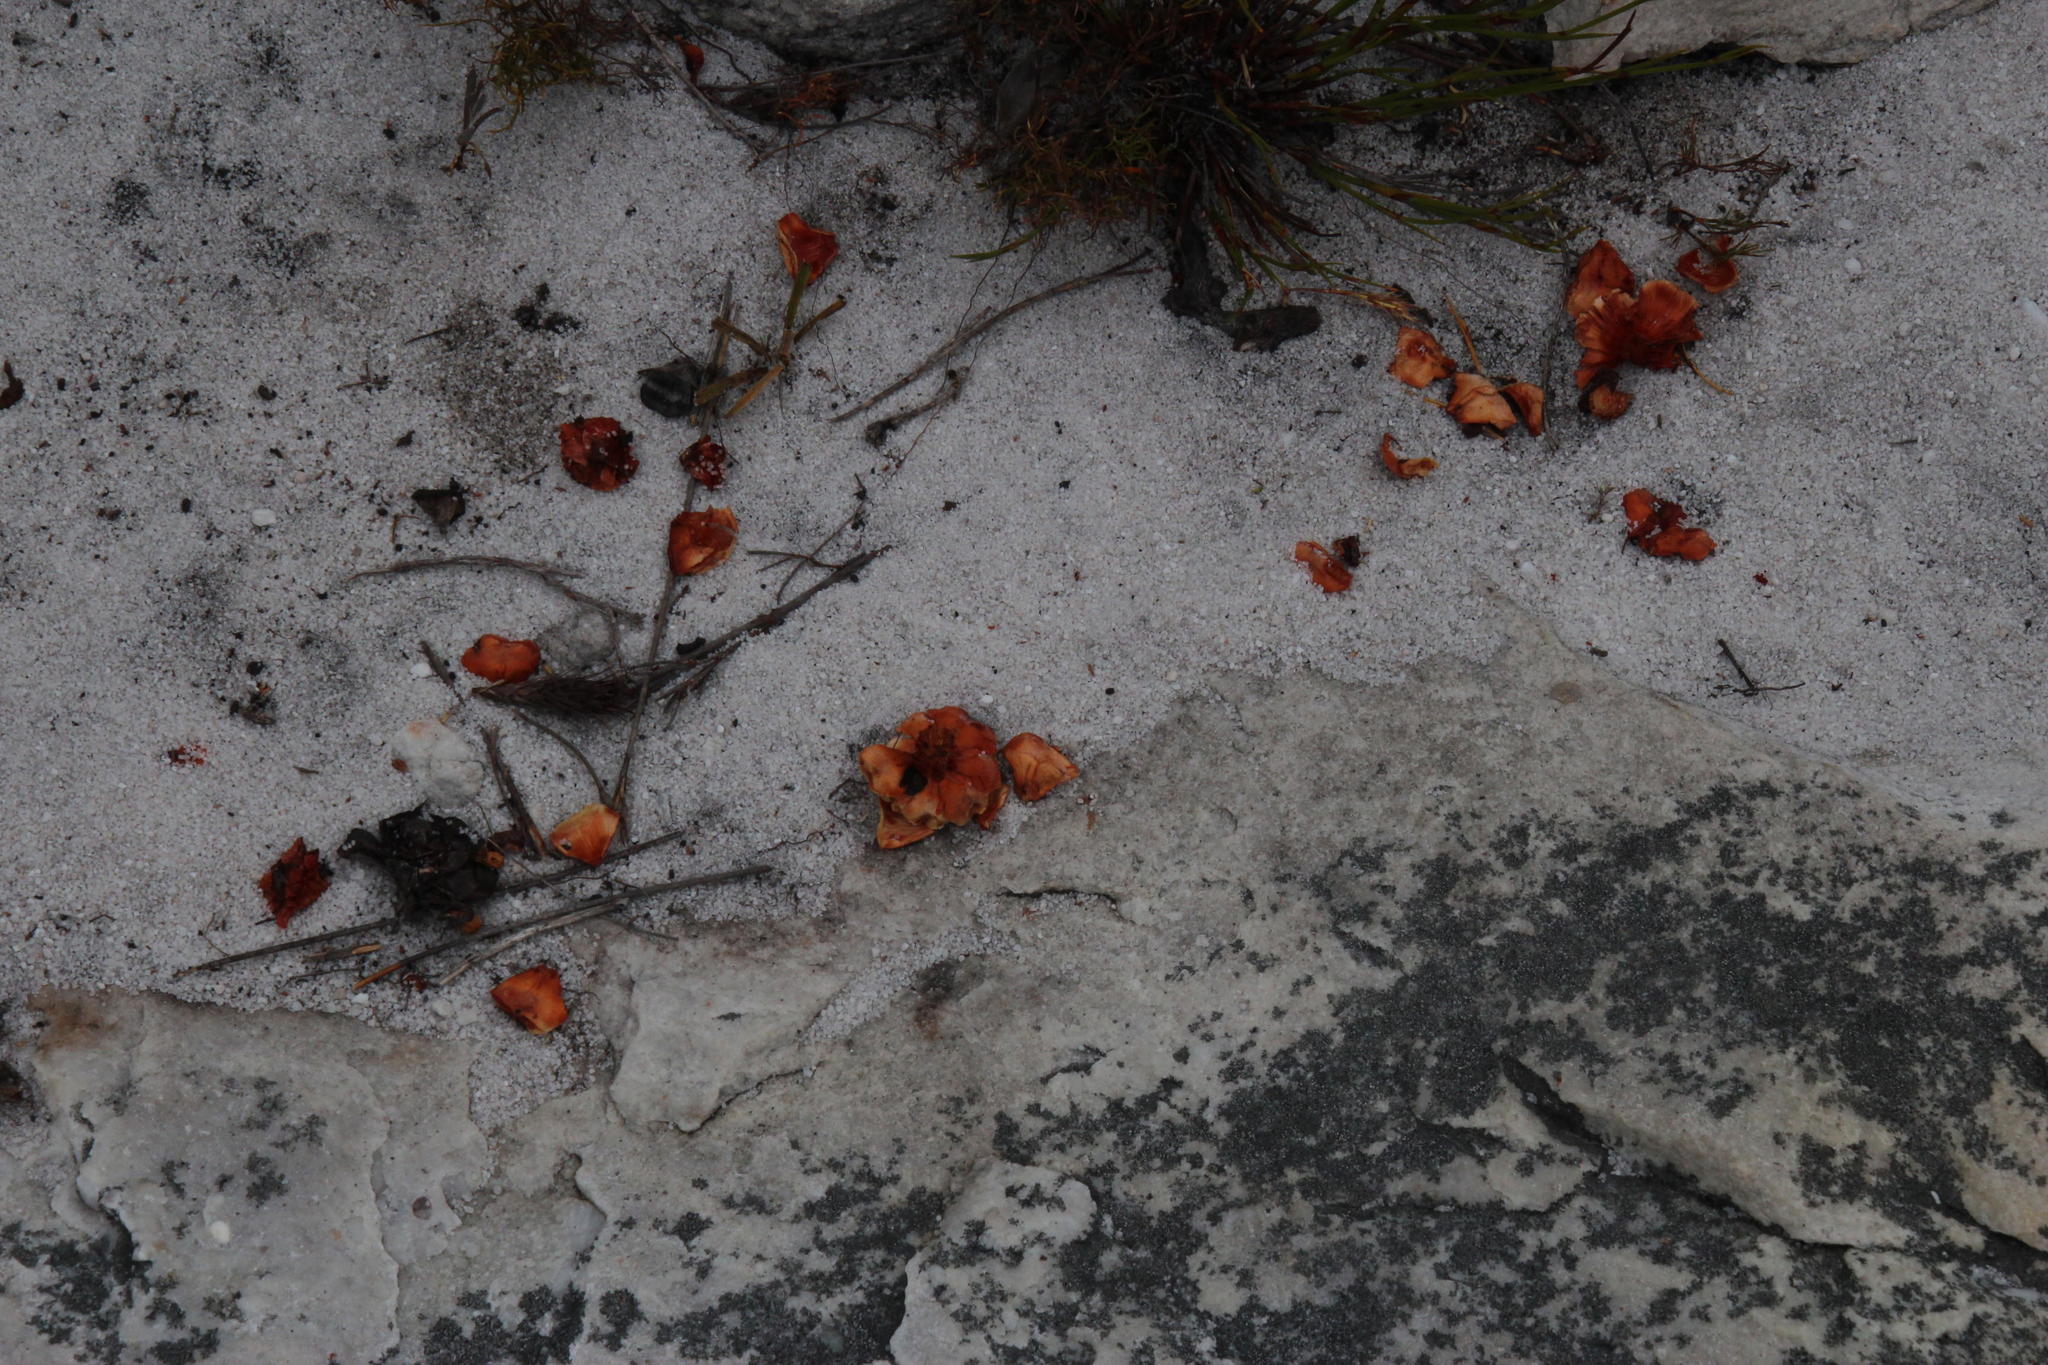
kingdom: Plantae
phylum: Tracheophyta
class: Magnoliopsida
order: Proteales
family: Proteaceae
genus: Leucadendron
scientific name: Leucadendron laureolum
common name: Golden sunshinebush
